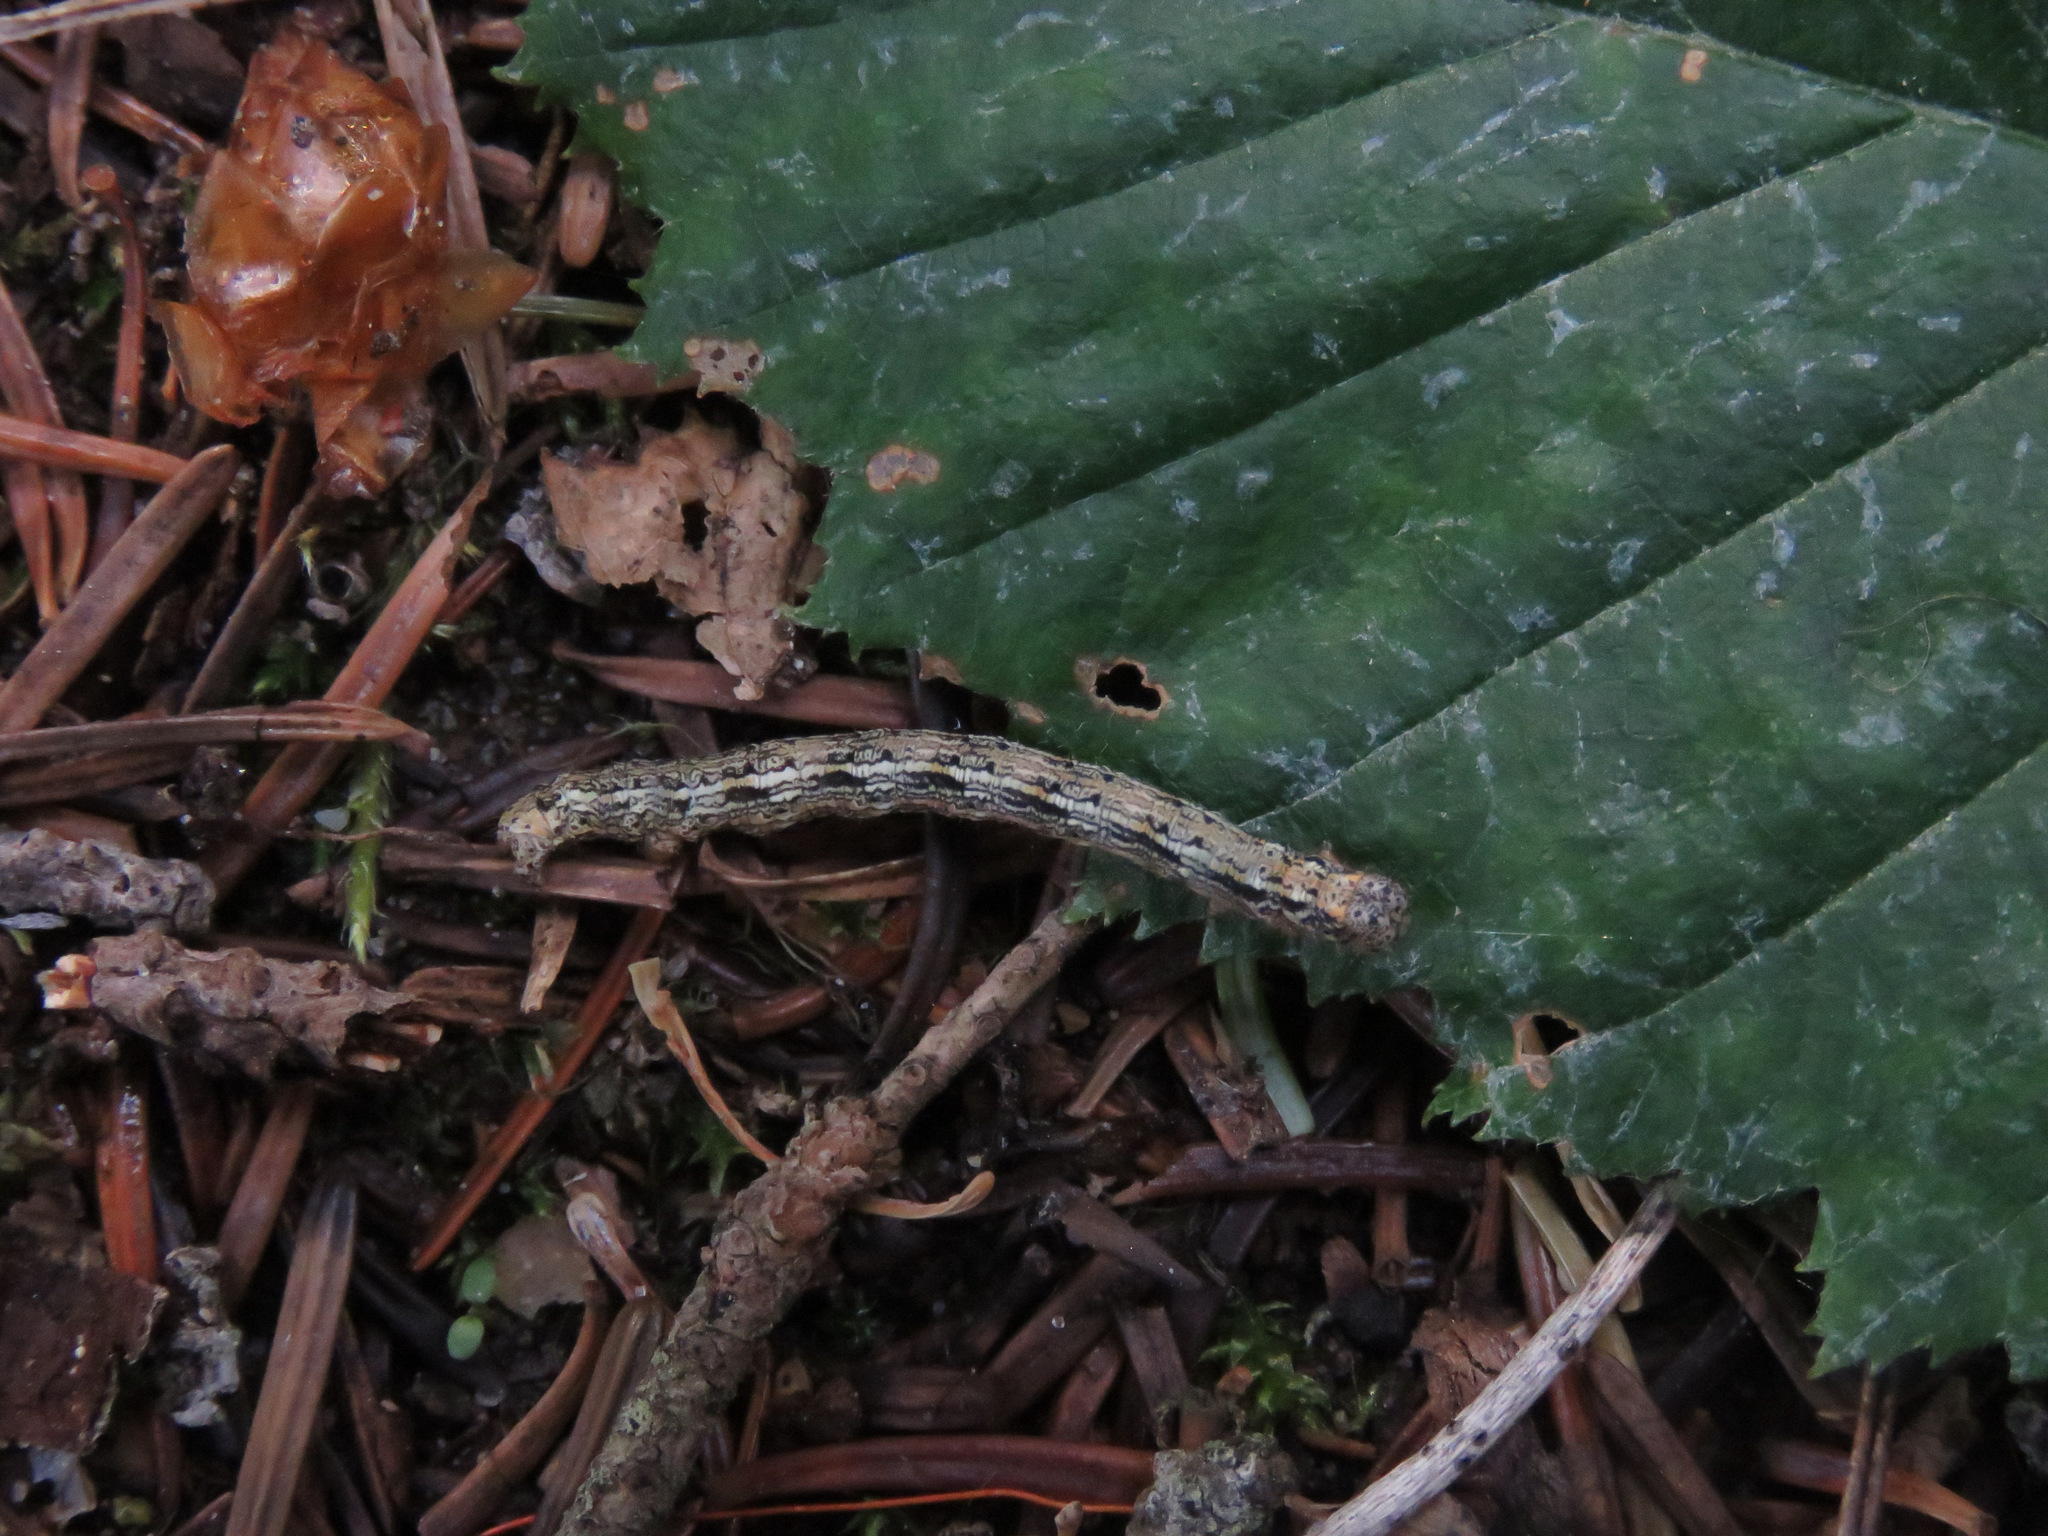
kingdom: Animalia
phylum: Arthropoda
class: Insecta
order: Lepidoptera
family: Geometridae
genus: Lambdina
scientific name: Lambdina fiscellaria
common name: Hemlock looper
